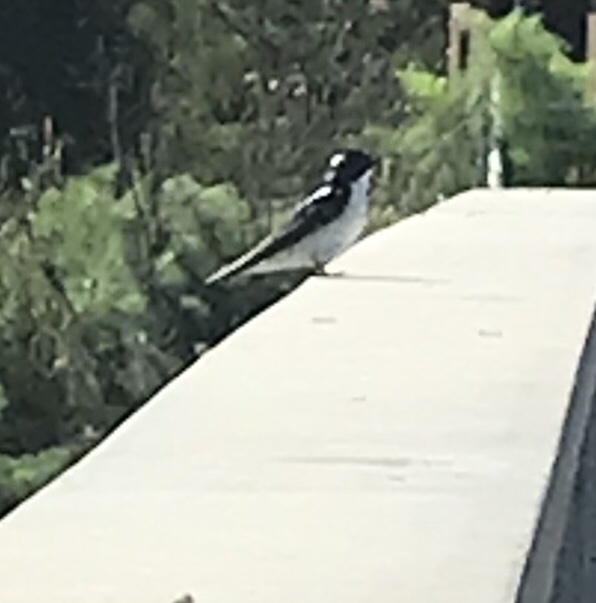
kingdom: Animalia
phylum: Chordata
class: Aves
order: Passeriformes
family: Hirundinidae
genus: Tachycineta
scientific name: Tachycineta bicolor
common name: Tree swallow
